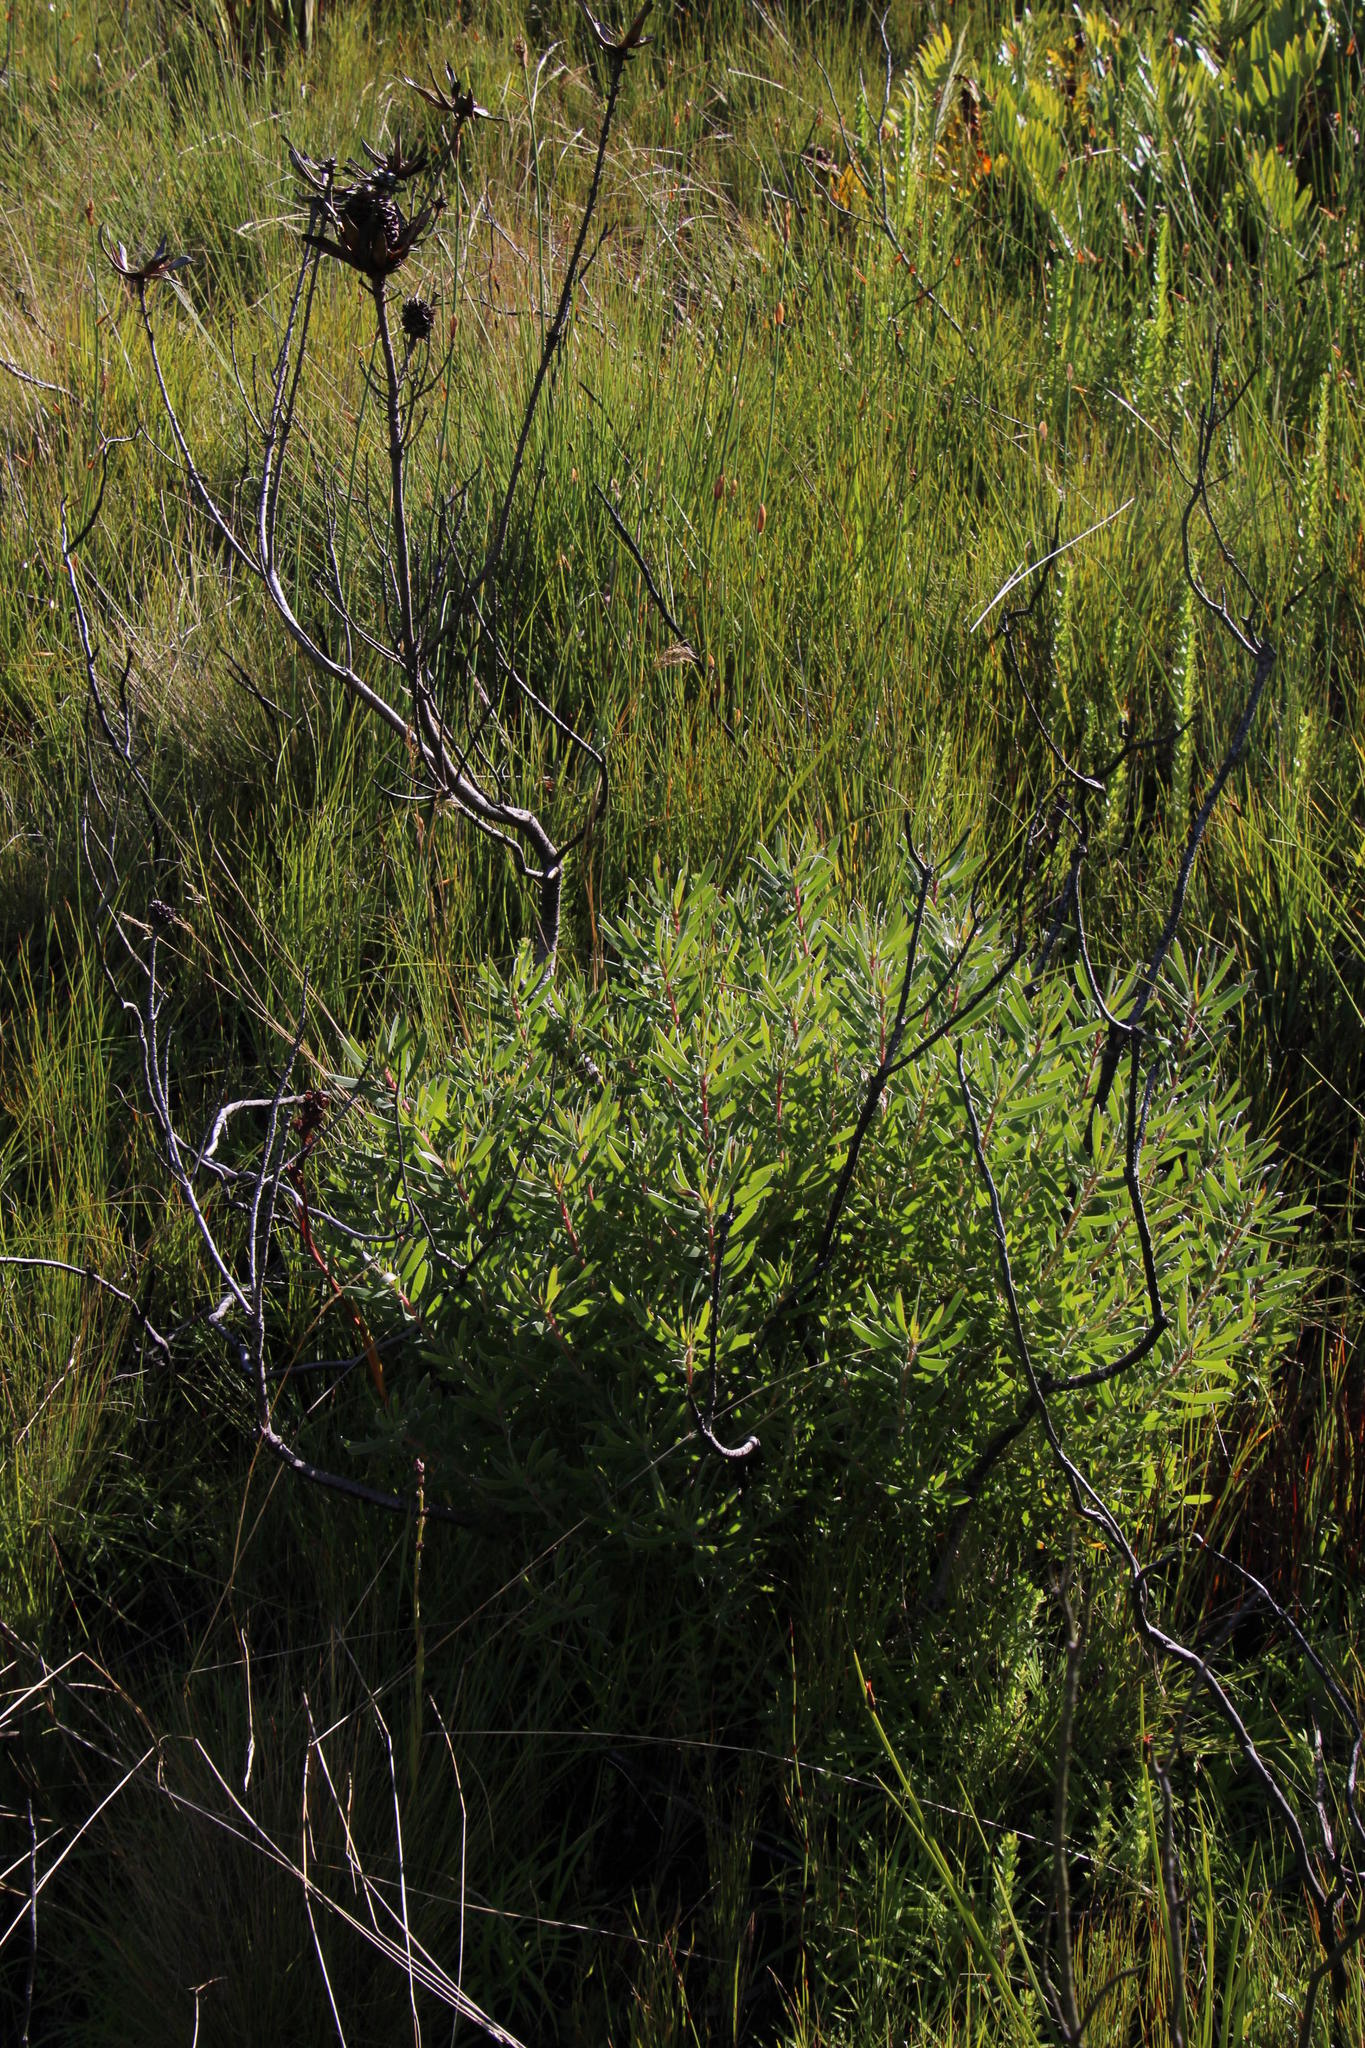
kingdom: Plantae
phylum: Tracheophyta
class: Magnoliopsida
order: Proteales
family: Proteaceae
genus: Leucadendron
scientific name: Leucadendron spissifolium
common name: Spear-leaf conebush
